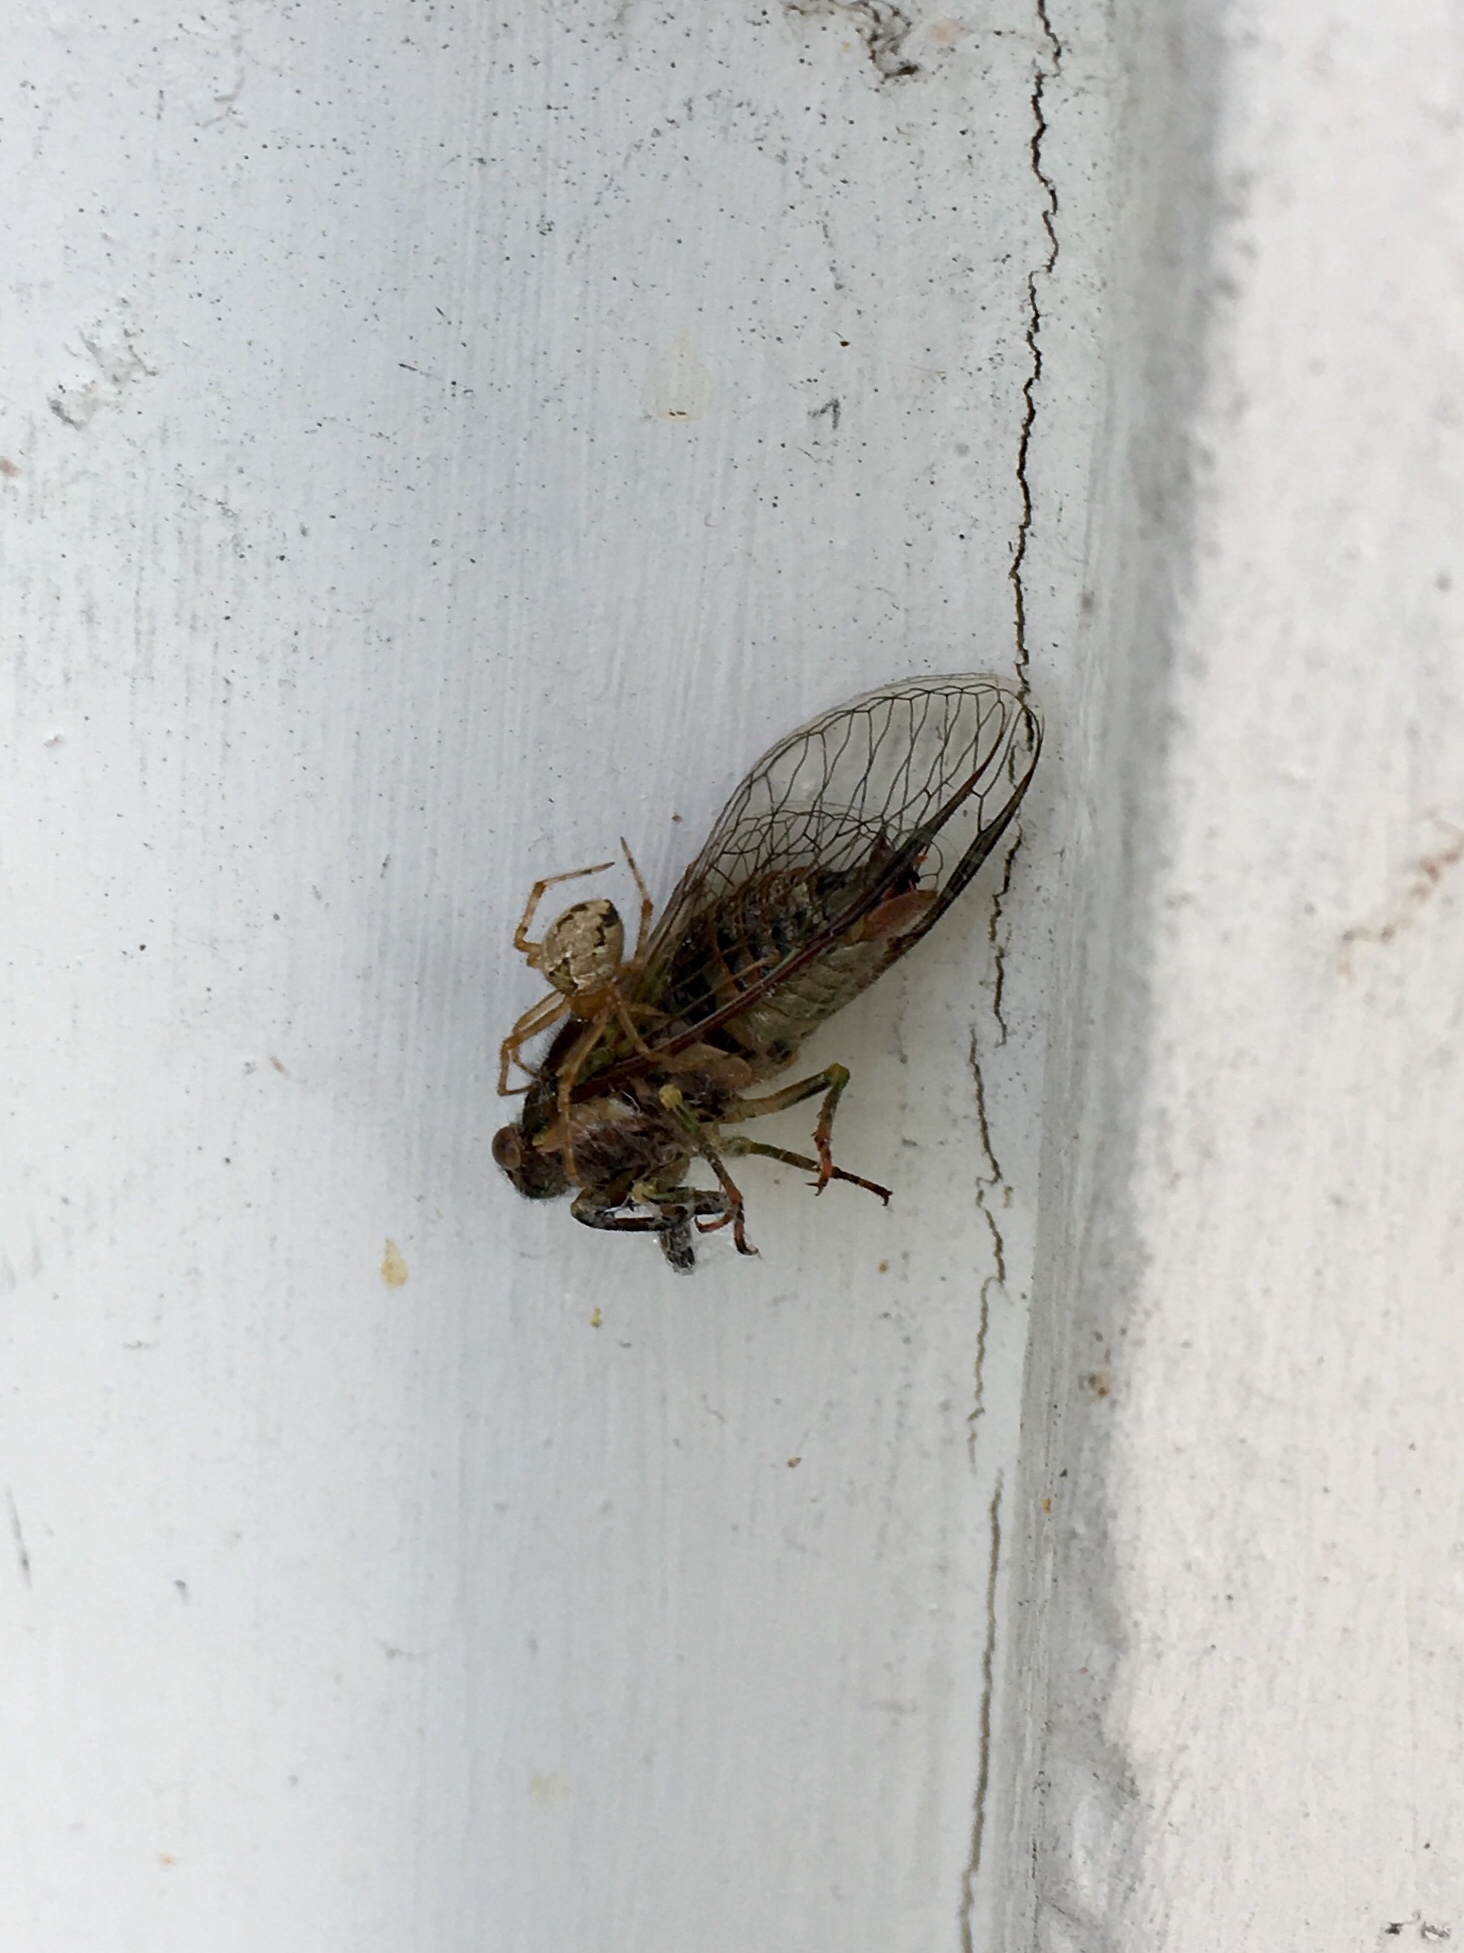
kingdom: Animalia
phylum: Arthropoda
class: Arachnida
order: Araneae
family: Theridiidae
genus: Cryptachaea
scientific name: Cryptachaea veruculata
